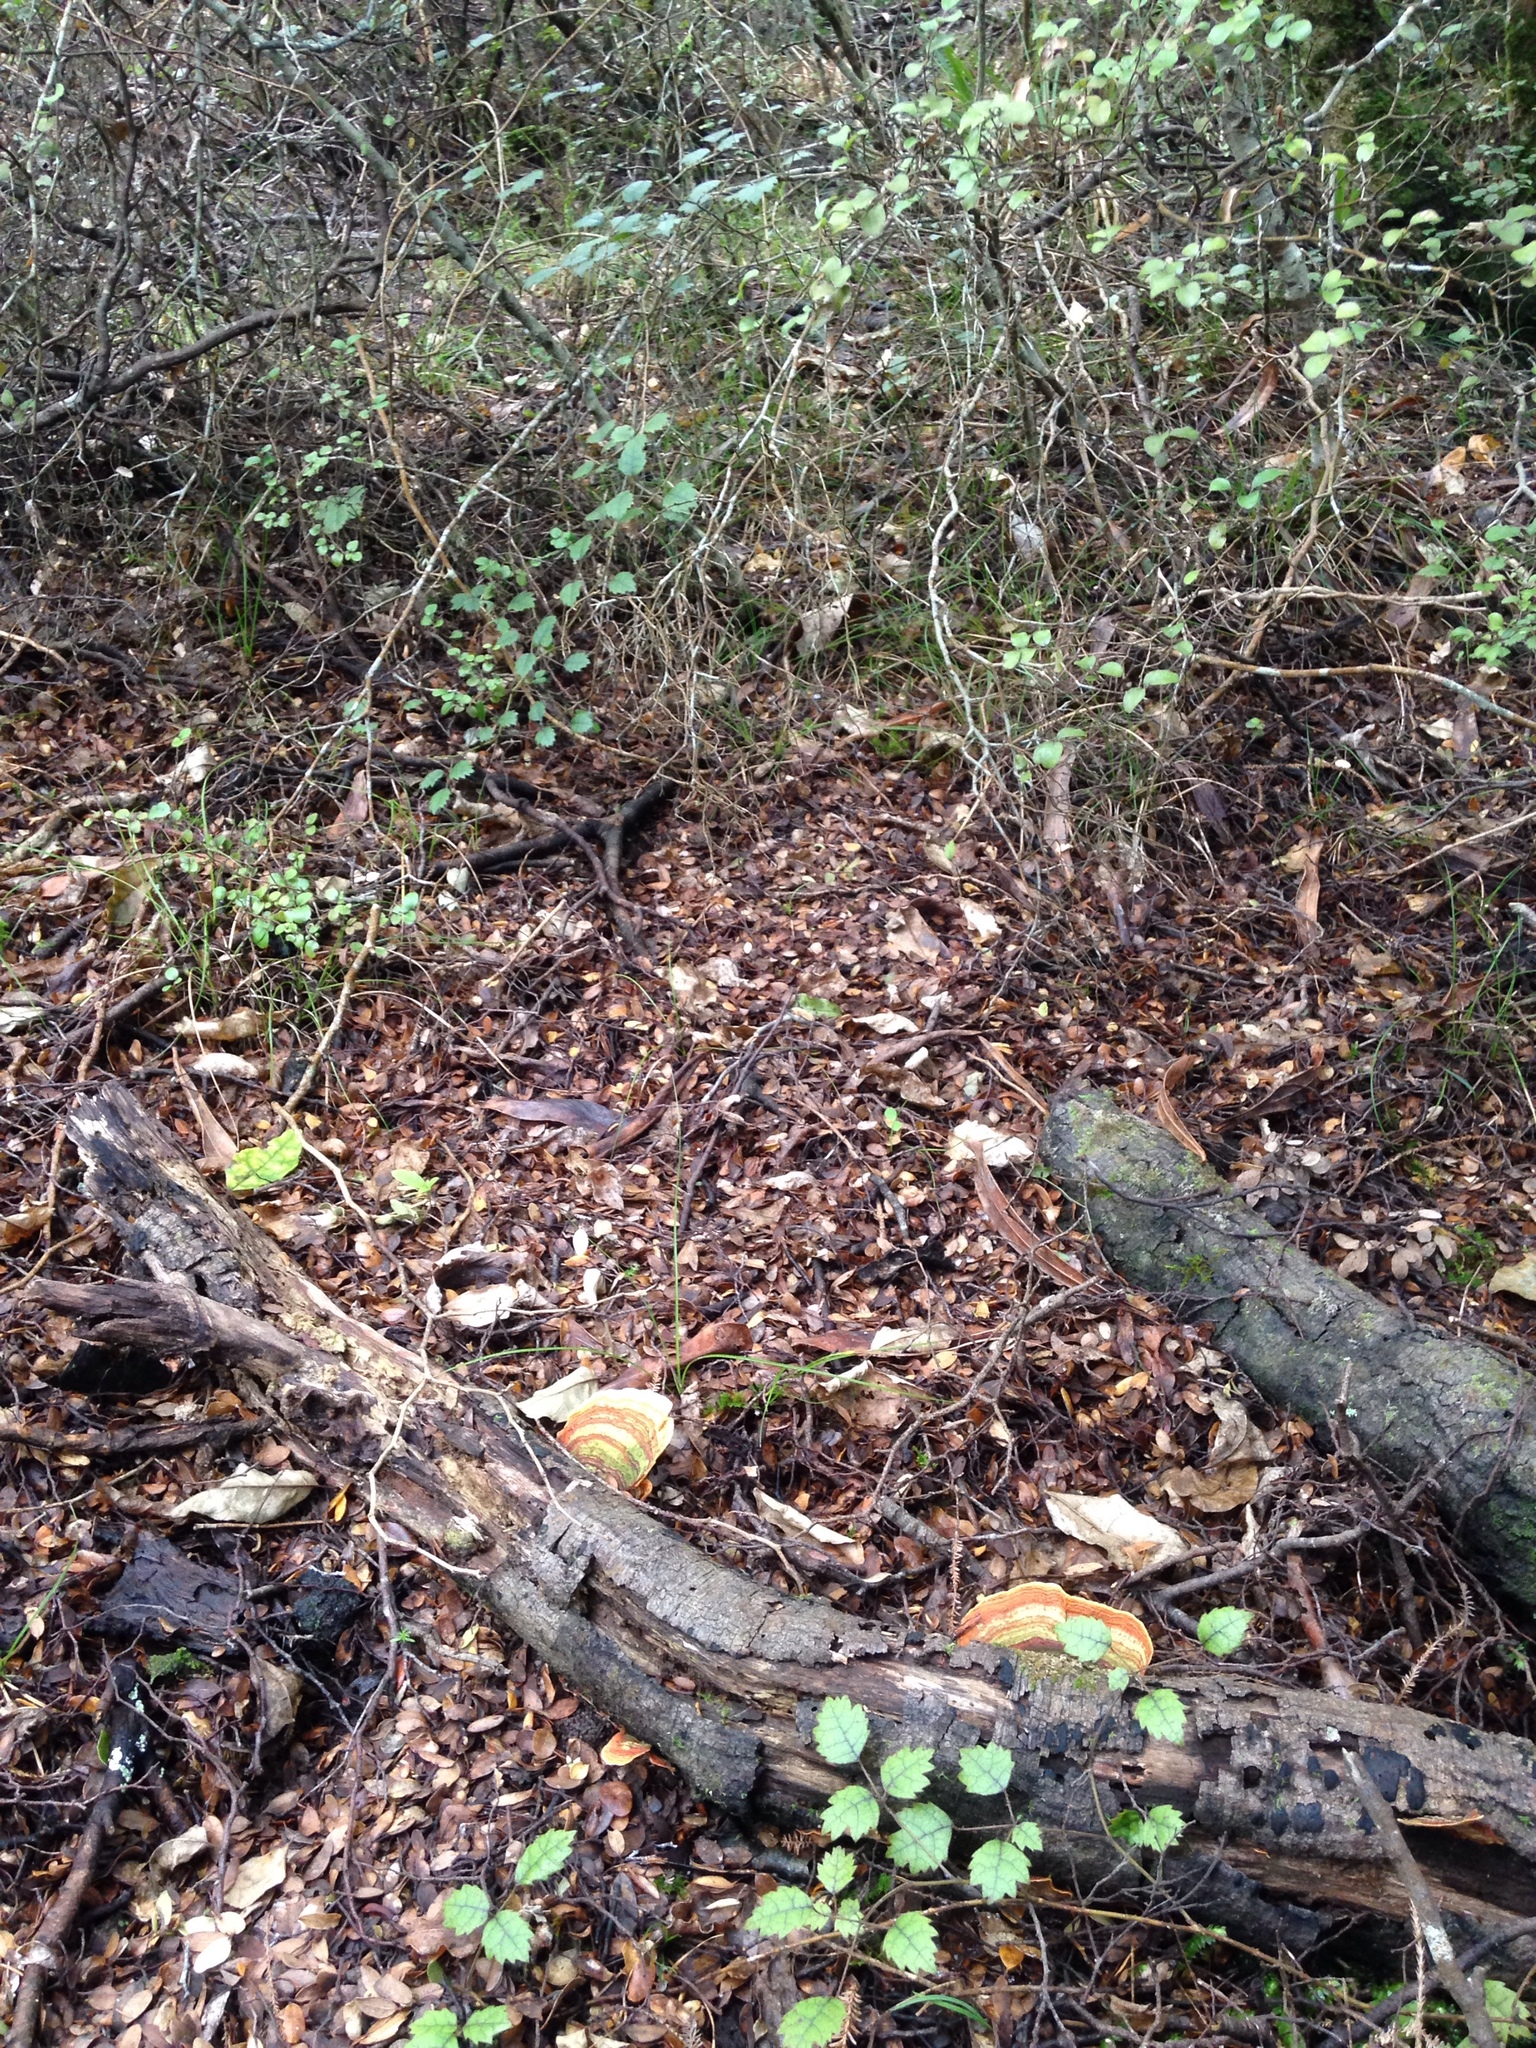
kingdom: Fungi
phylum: Basidiomycota
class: Agaricomycetes
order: Russulales
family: Stereaceae
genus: Stereum
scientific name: Stereum versicolor
